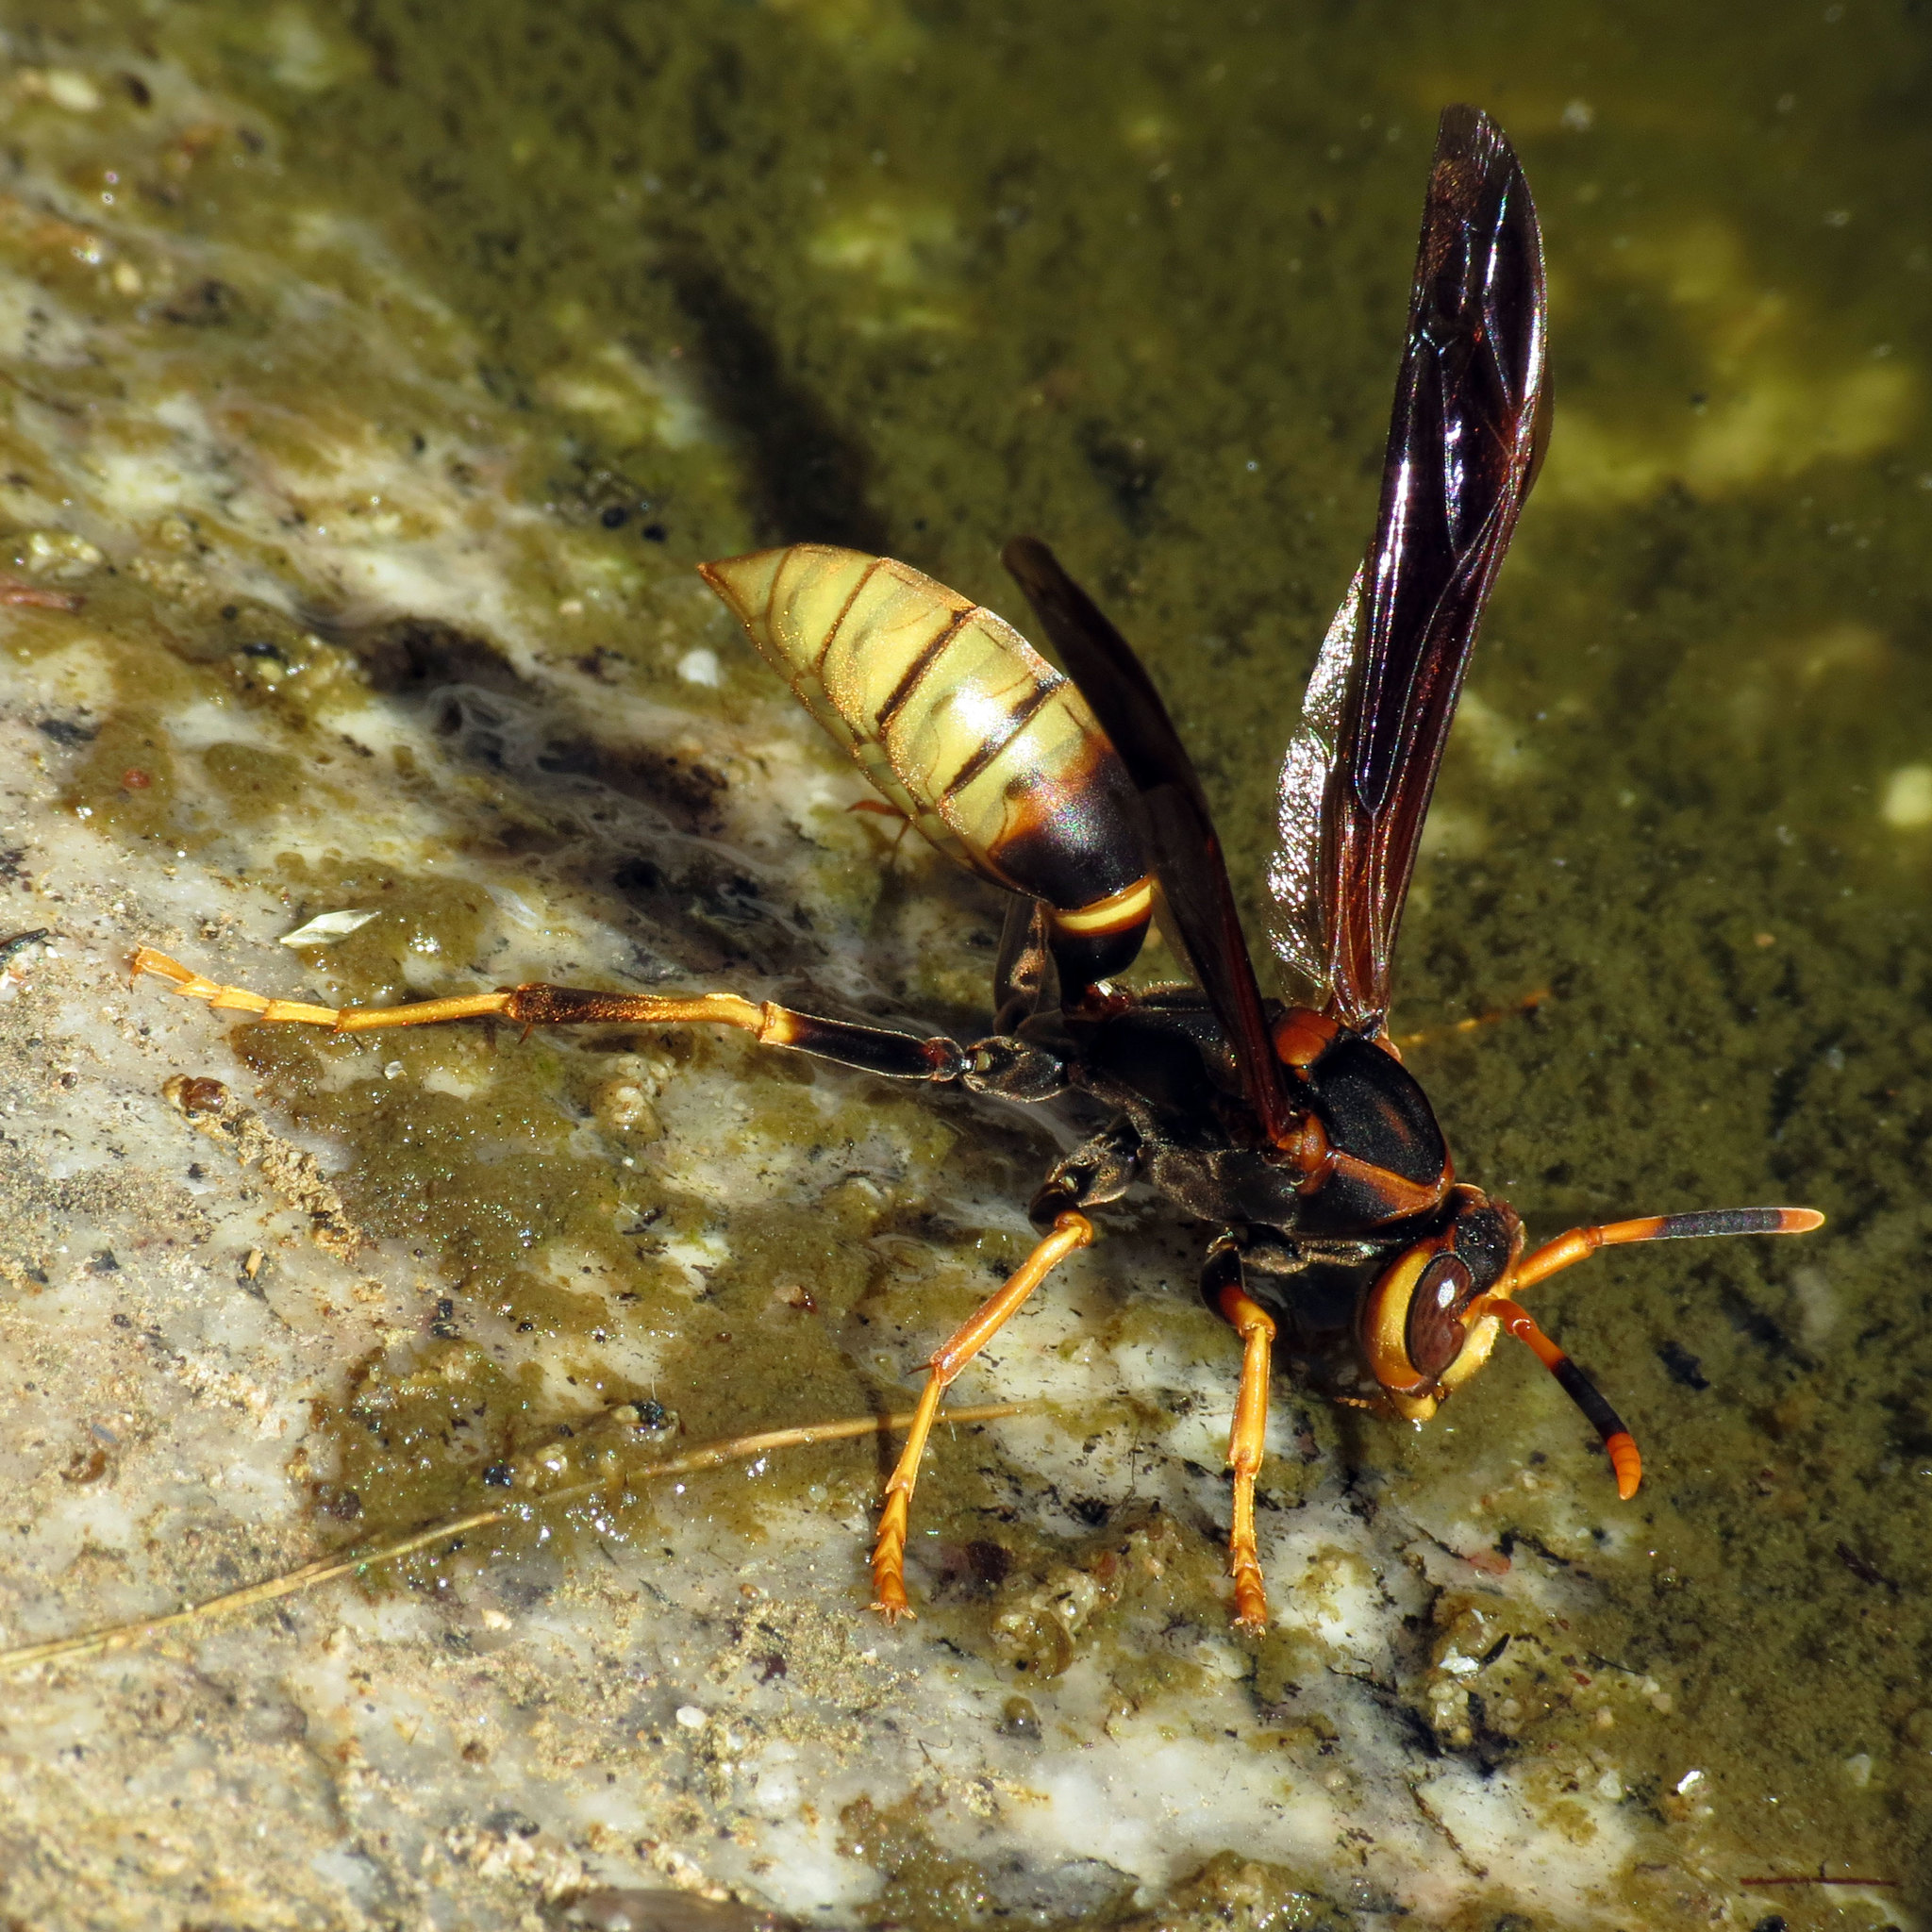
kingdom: Animalia
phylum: Arthropoda
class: Insecta
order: Hymenoptera
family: Eumenidae
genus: Polistes
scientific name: Polistes comanchus
